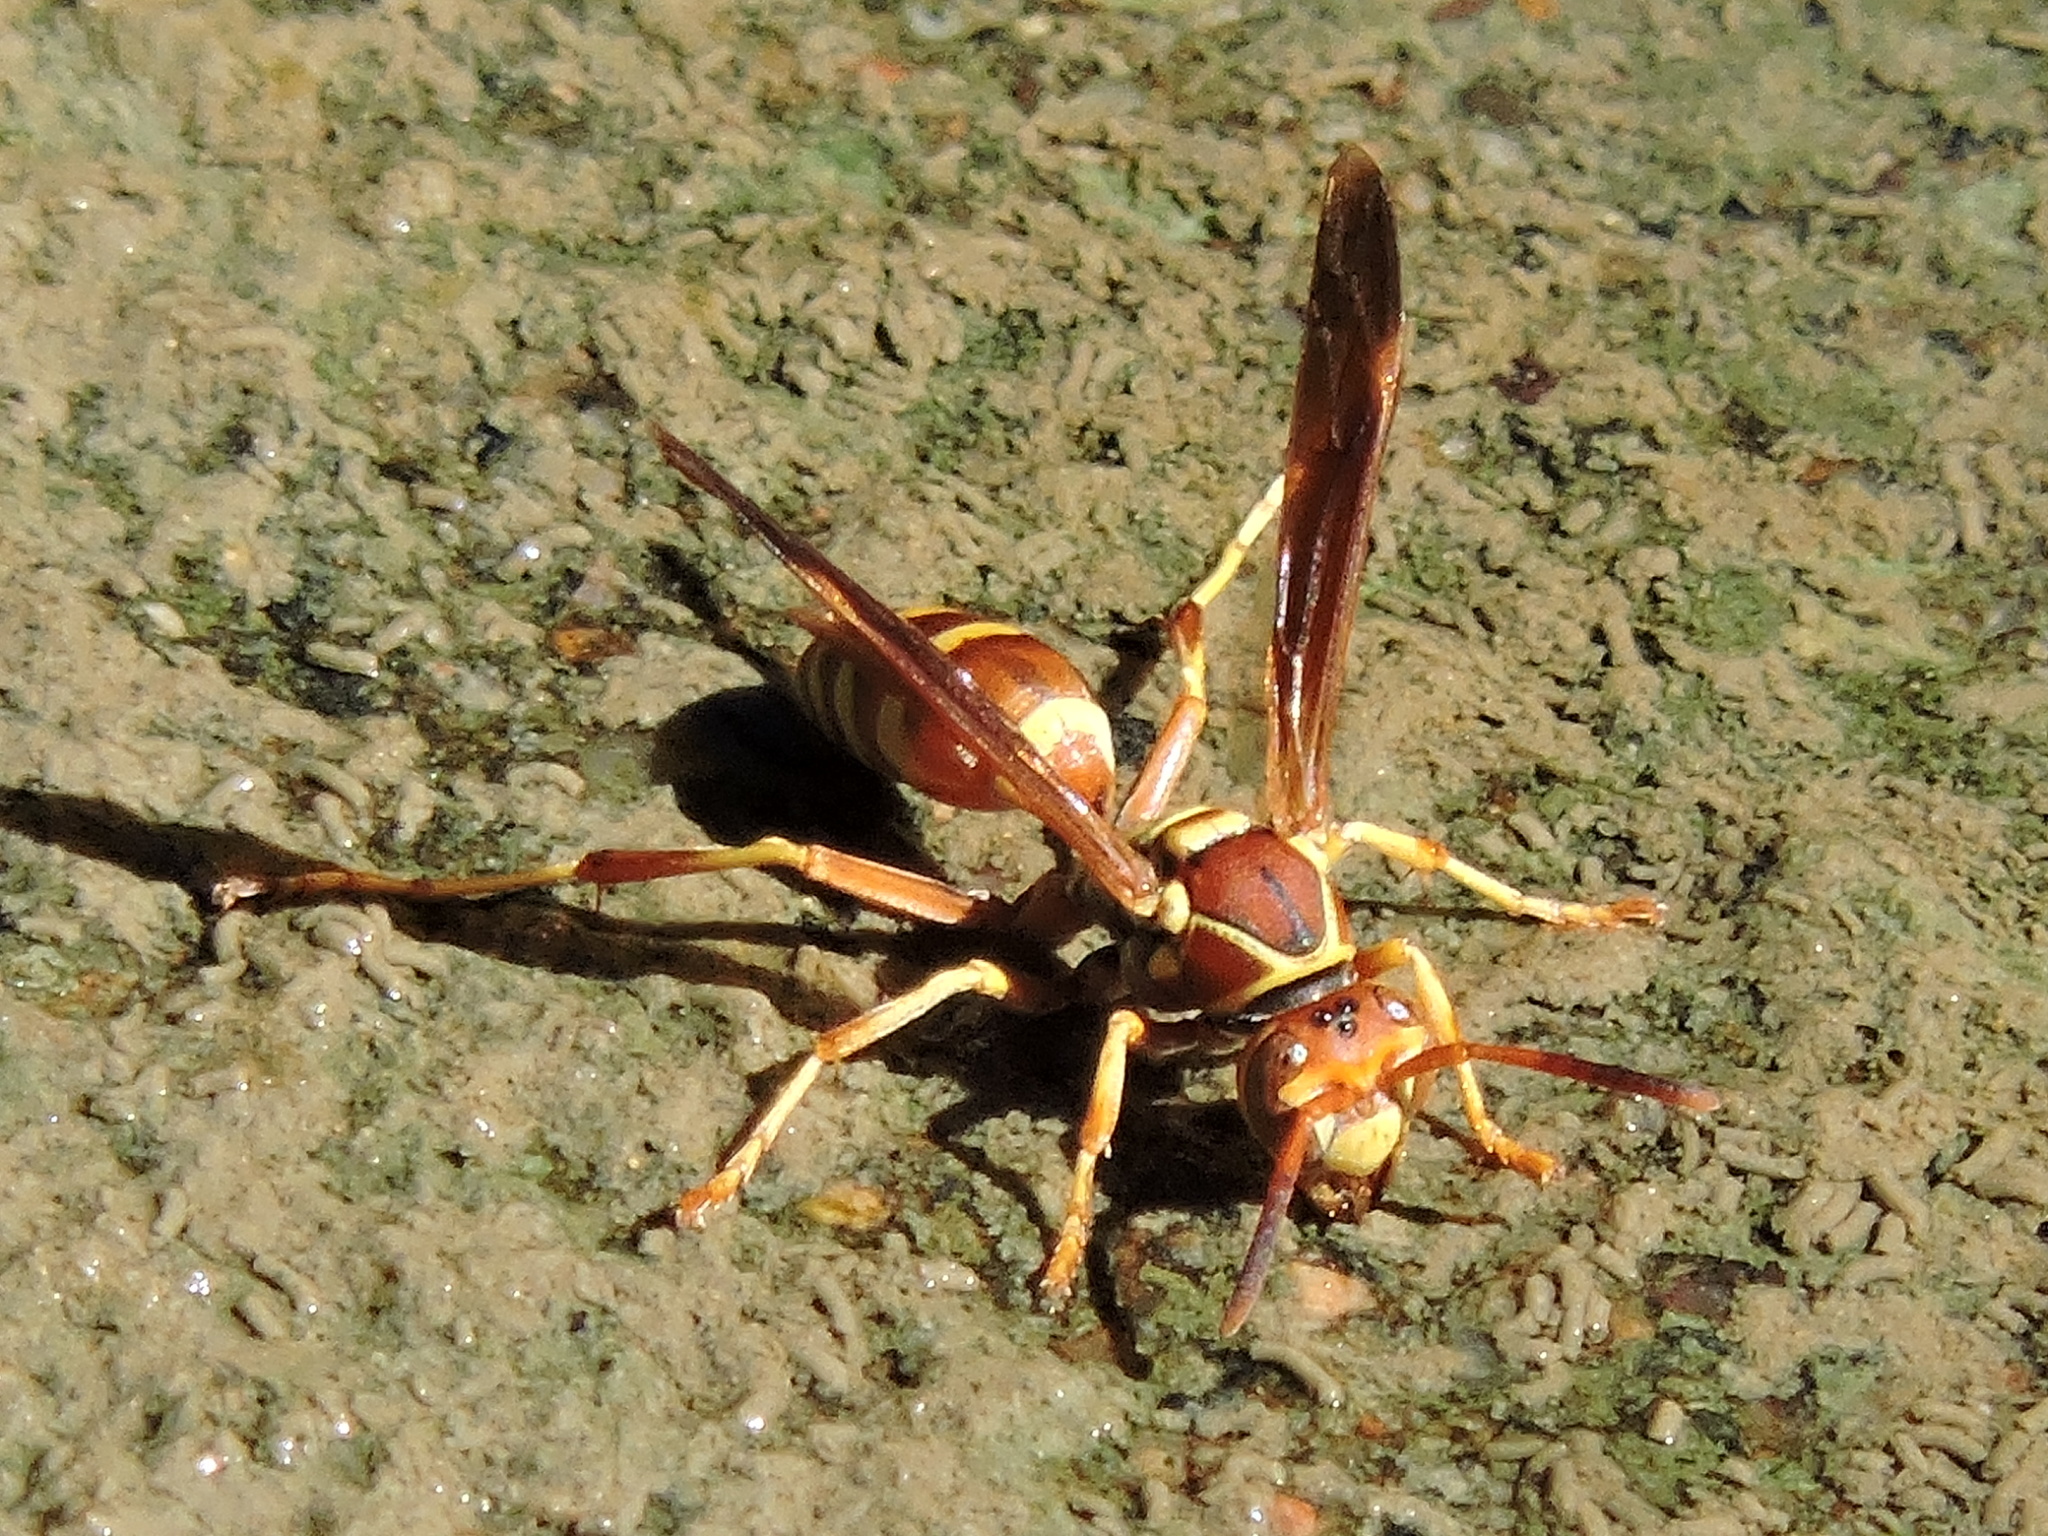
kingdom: Animalia
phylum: Arthropoda
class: Insecta
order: Hymenoptera
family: Eumenidae
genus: Polistes
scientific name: Polistes bellicosus
